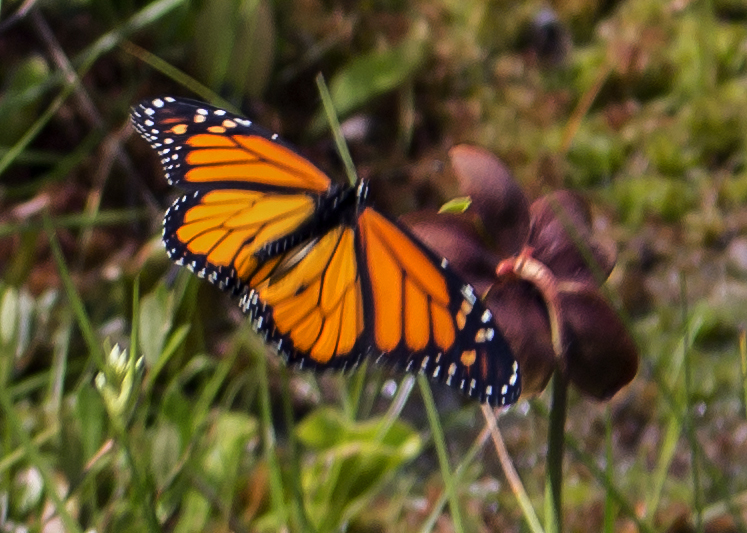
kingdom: Animalia
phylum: Arthropoda
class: Insecta
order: Lepidoptera
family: Nymphalidae
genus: Danaus
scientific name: Danaus plexippus
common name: Monarch
